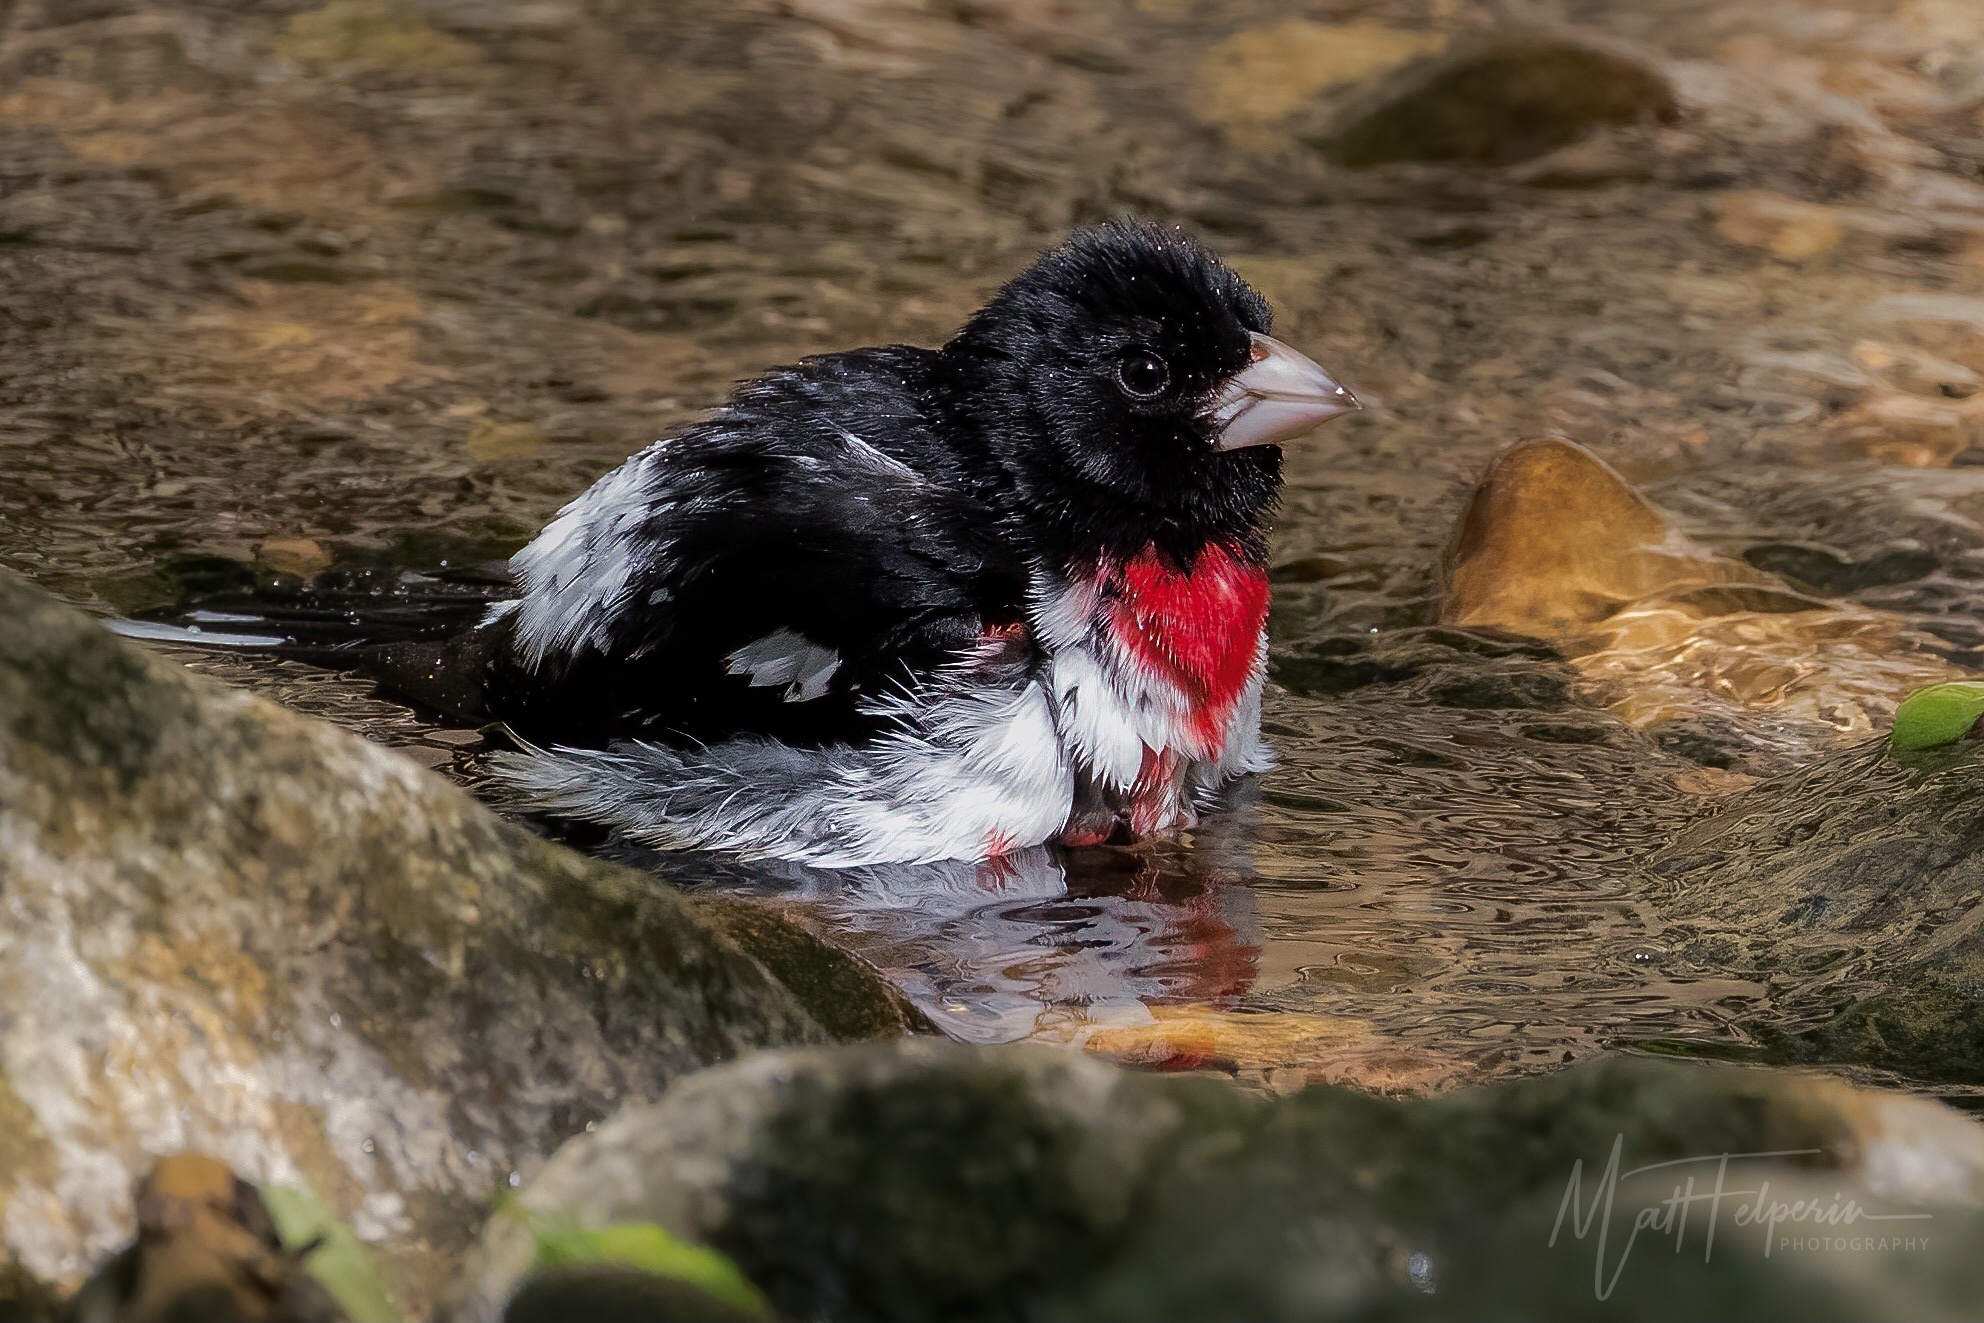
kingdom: Animalia
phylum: Chordata
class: Aves
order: Passeriformes
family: Cardinalidae
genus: Pheucticus
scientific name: Pheucticus ludovicianus
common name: Rose-breasted grosbeak
